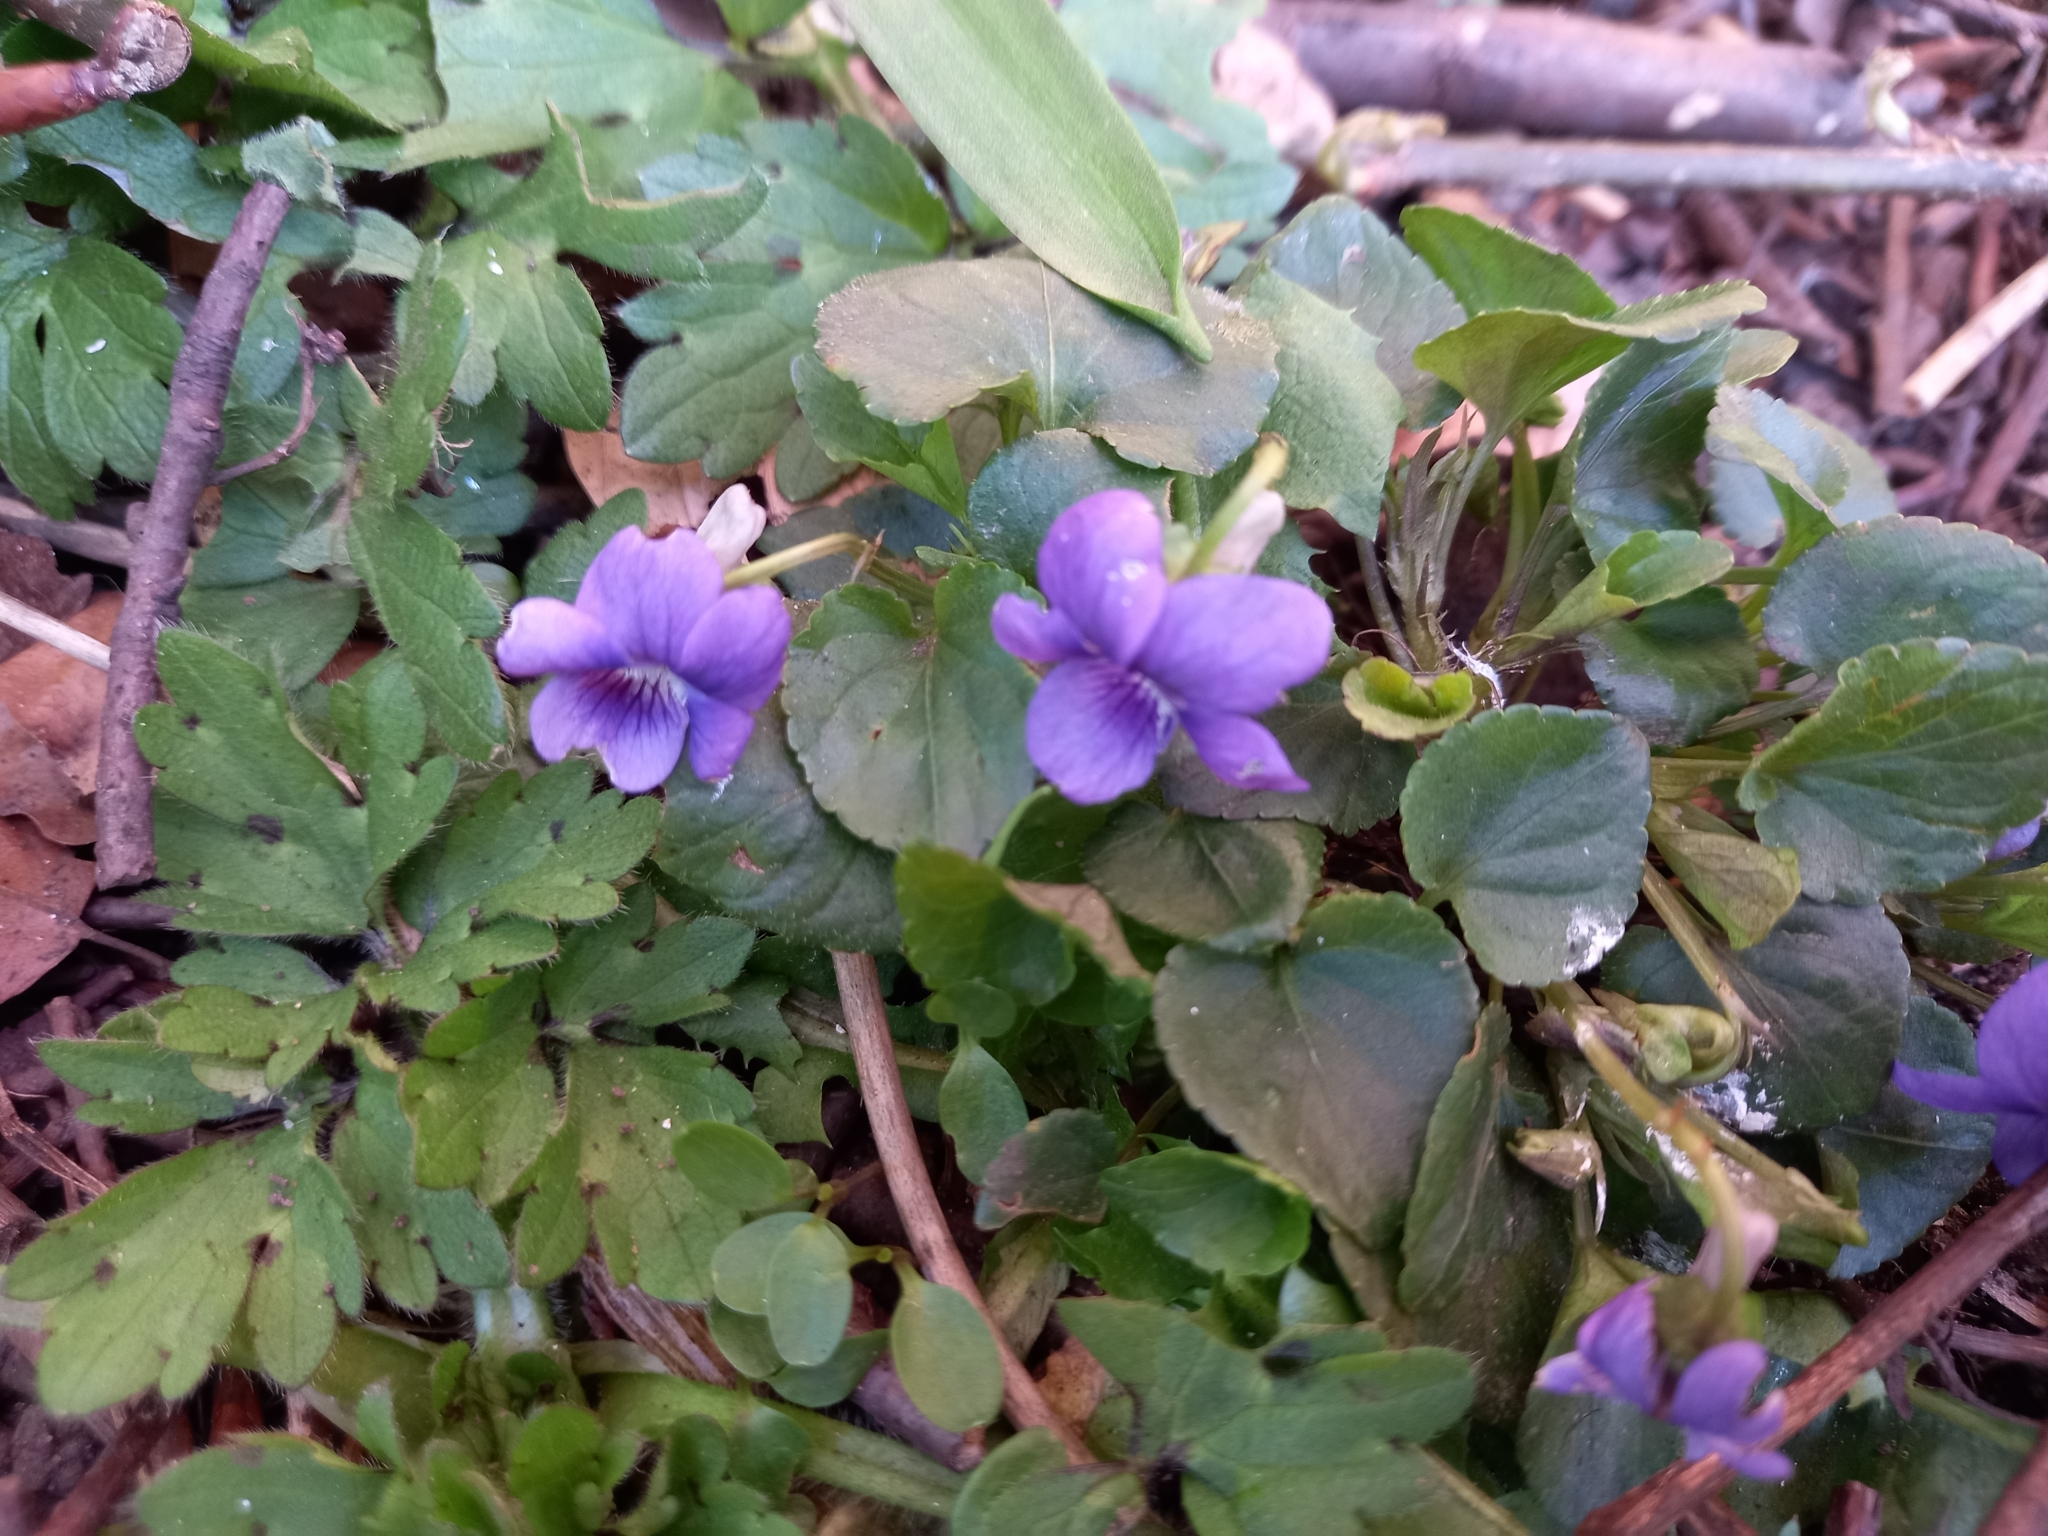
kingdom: Plantae
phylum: Tracheophyta
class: Magnoliopsida
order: Malpighiales
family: Violaceae
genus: Viola
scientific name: Viola riviniana
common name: Common dog-violet
